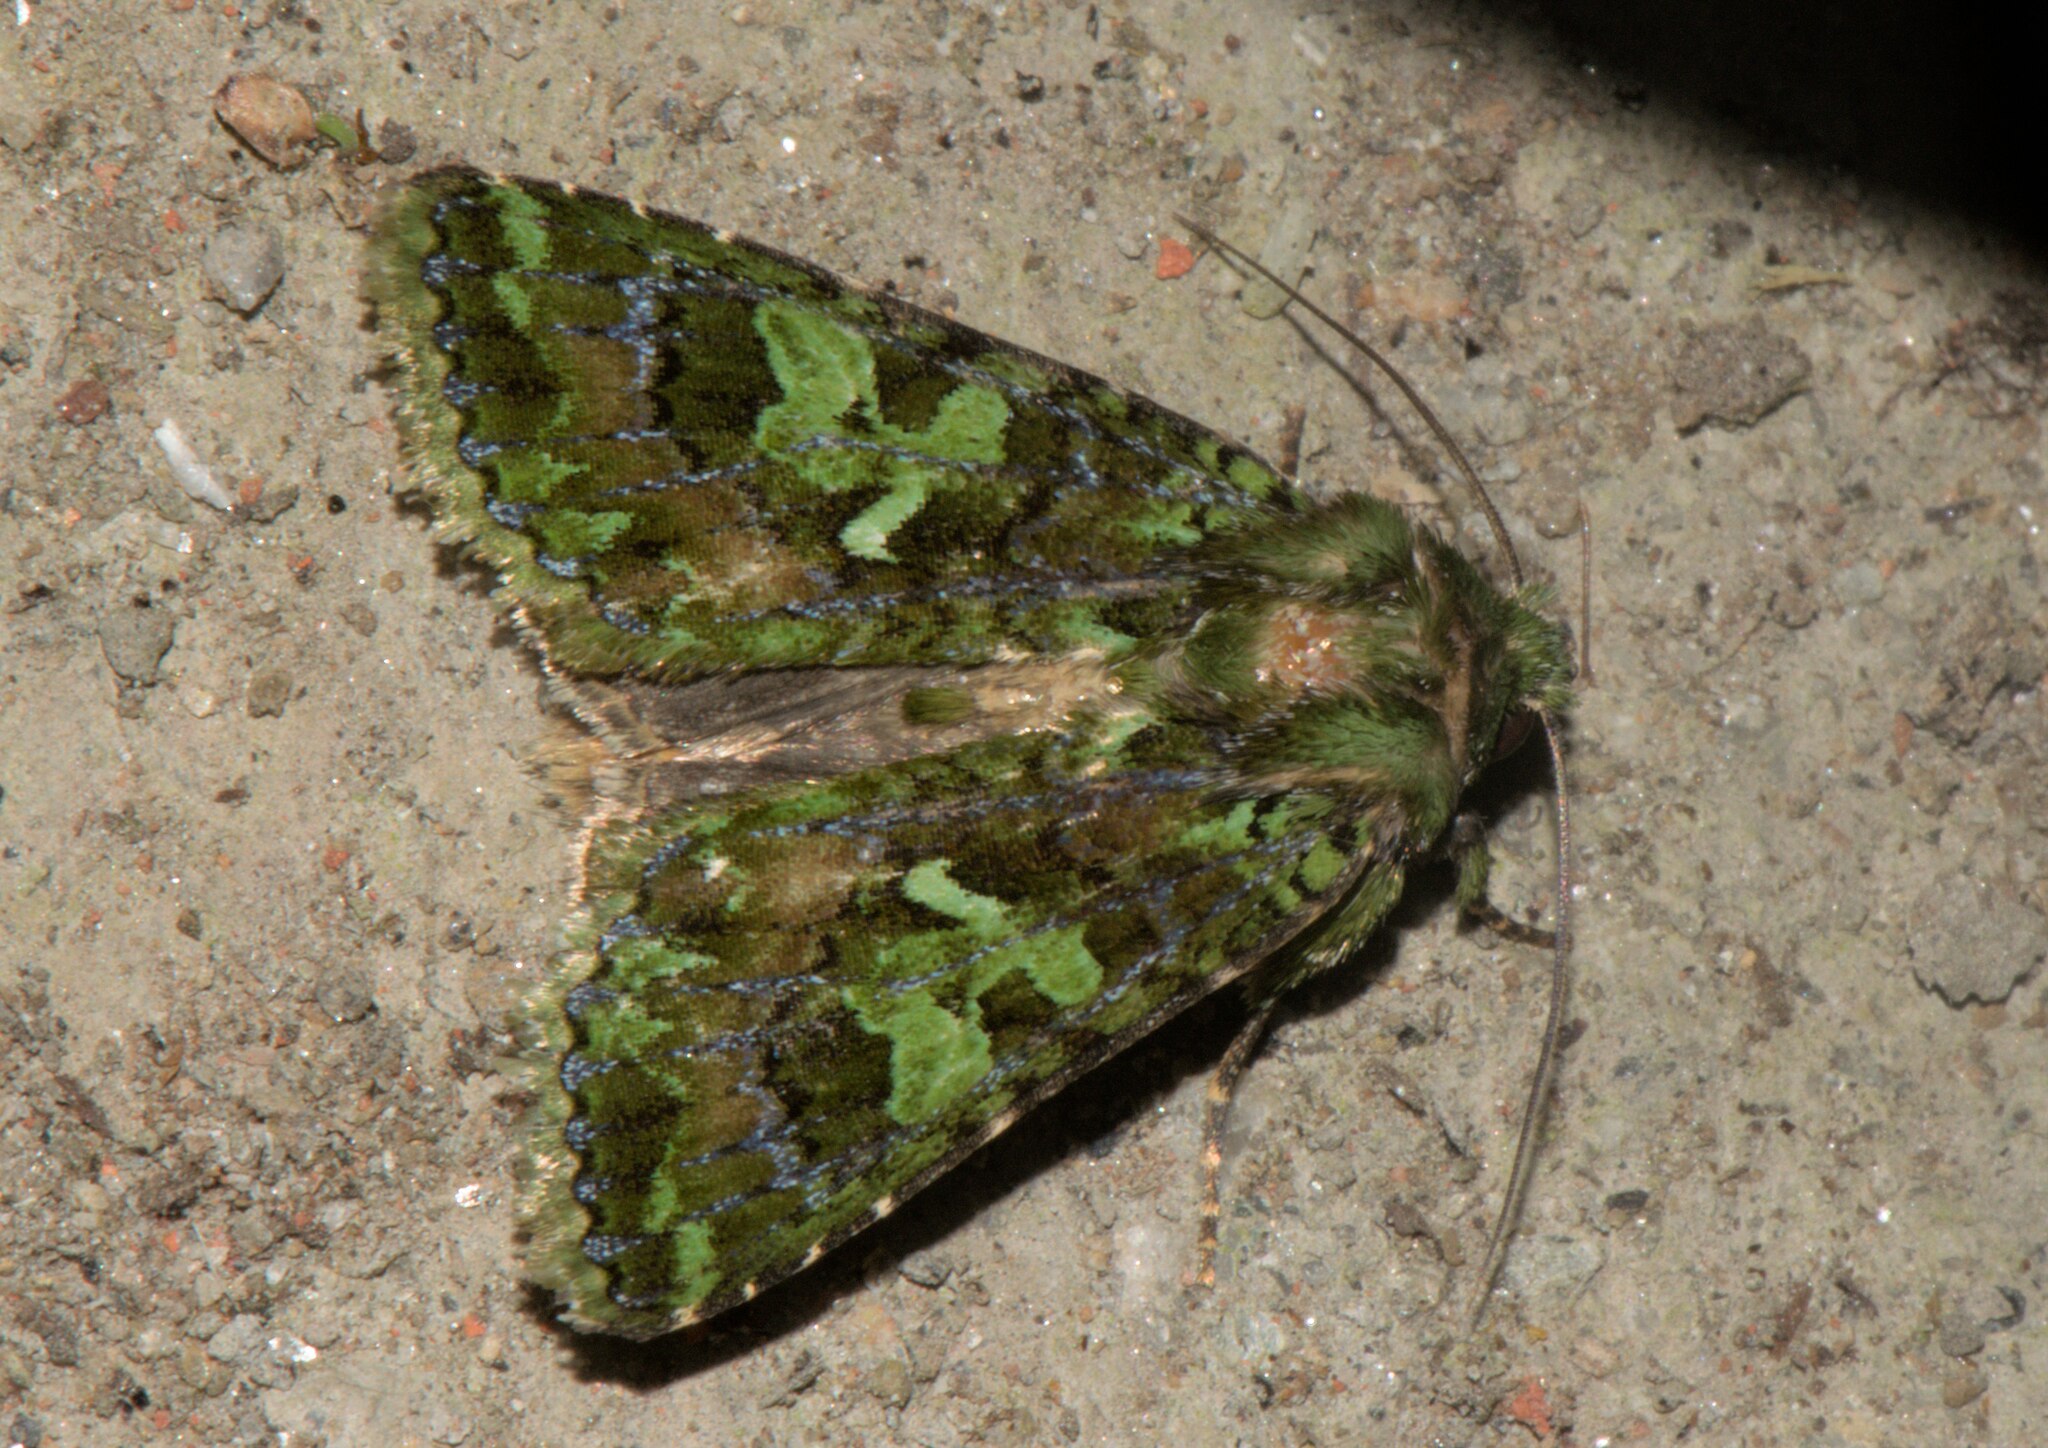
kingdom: Animalia
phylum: Arthropoda
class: Insecta
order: Lepidoptera
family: Noctuidae
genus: Trachea
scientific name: Trachea auriplena
